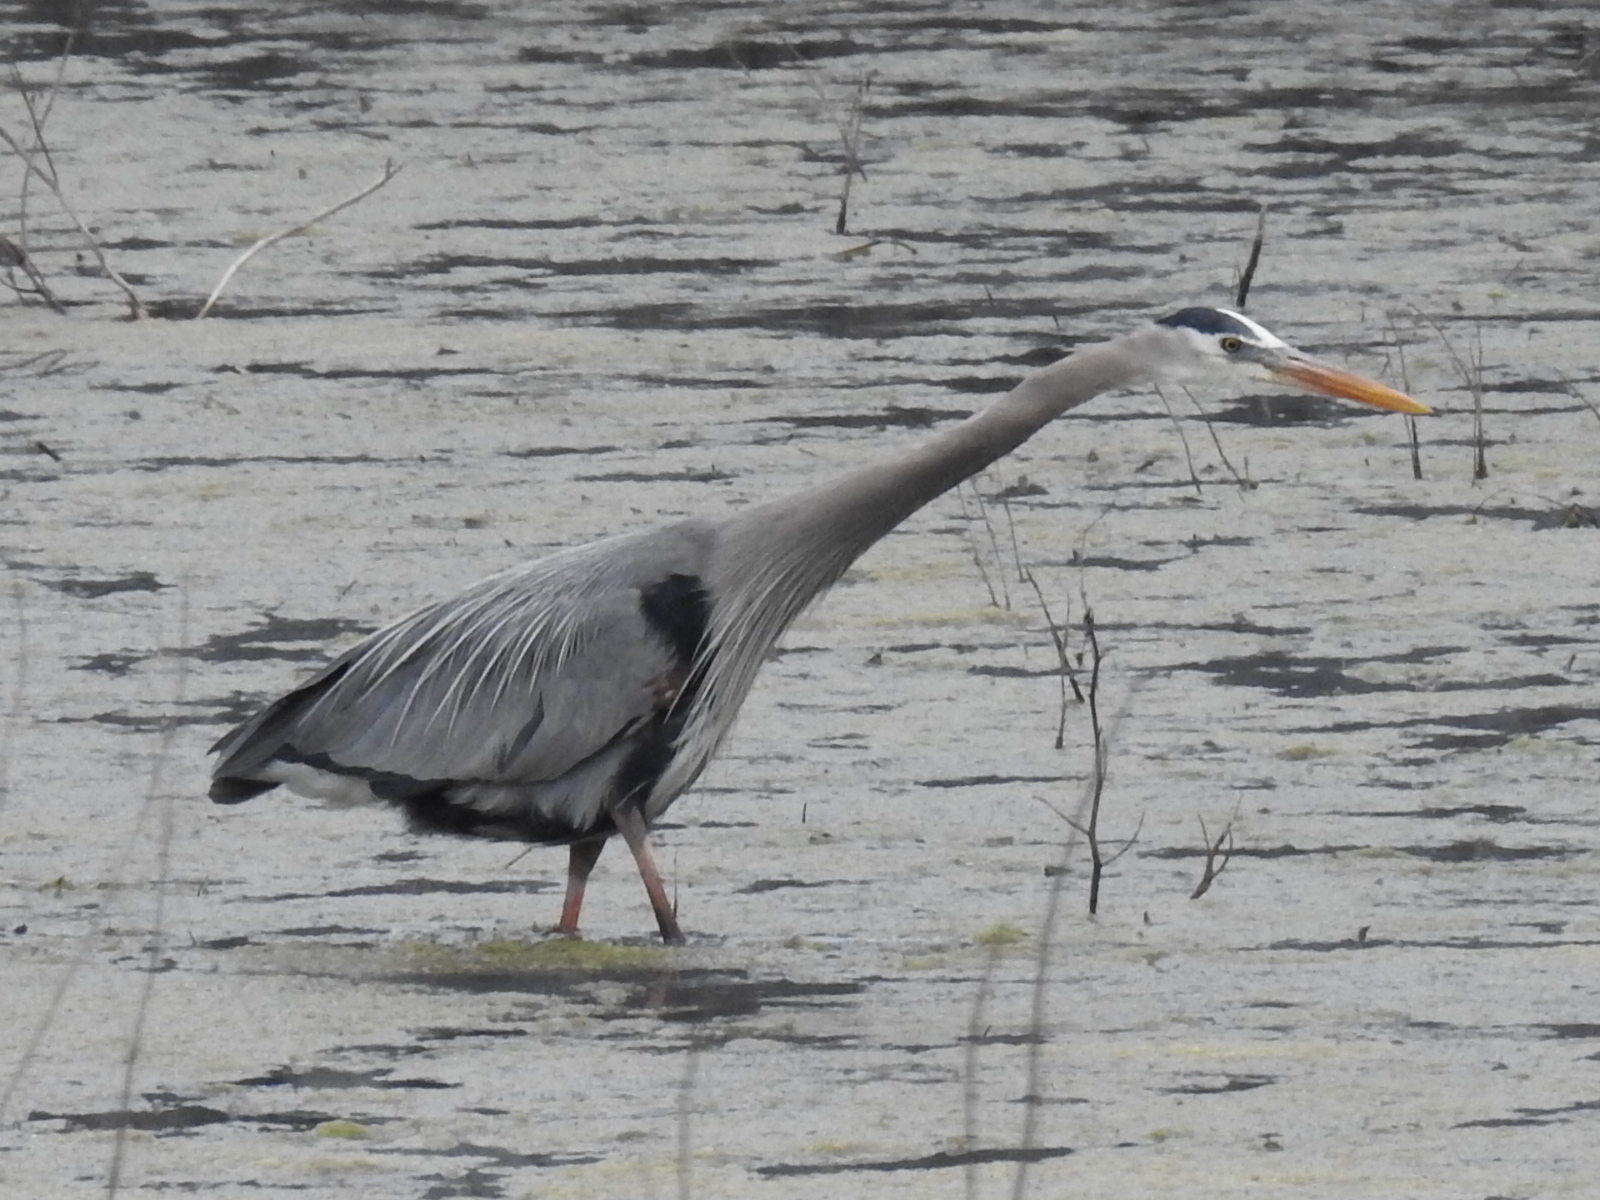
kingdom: Animalia
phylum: Chordata
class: Aves
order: Pelecaniformes
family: Ardeidae
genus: Ardea
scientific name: Ardea herodias
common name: Great blue heron
